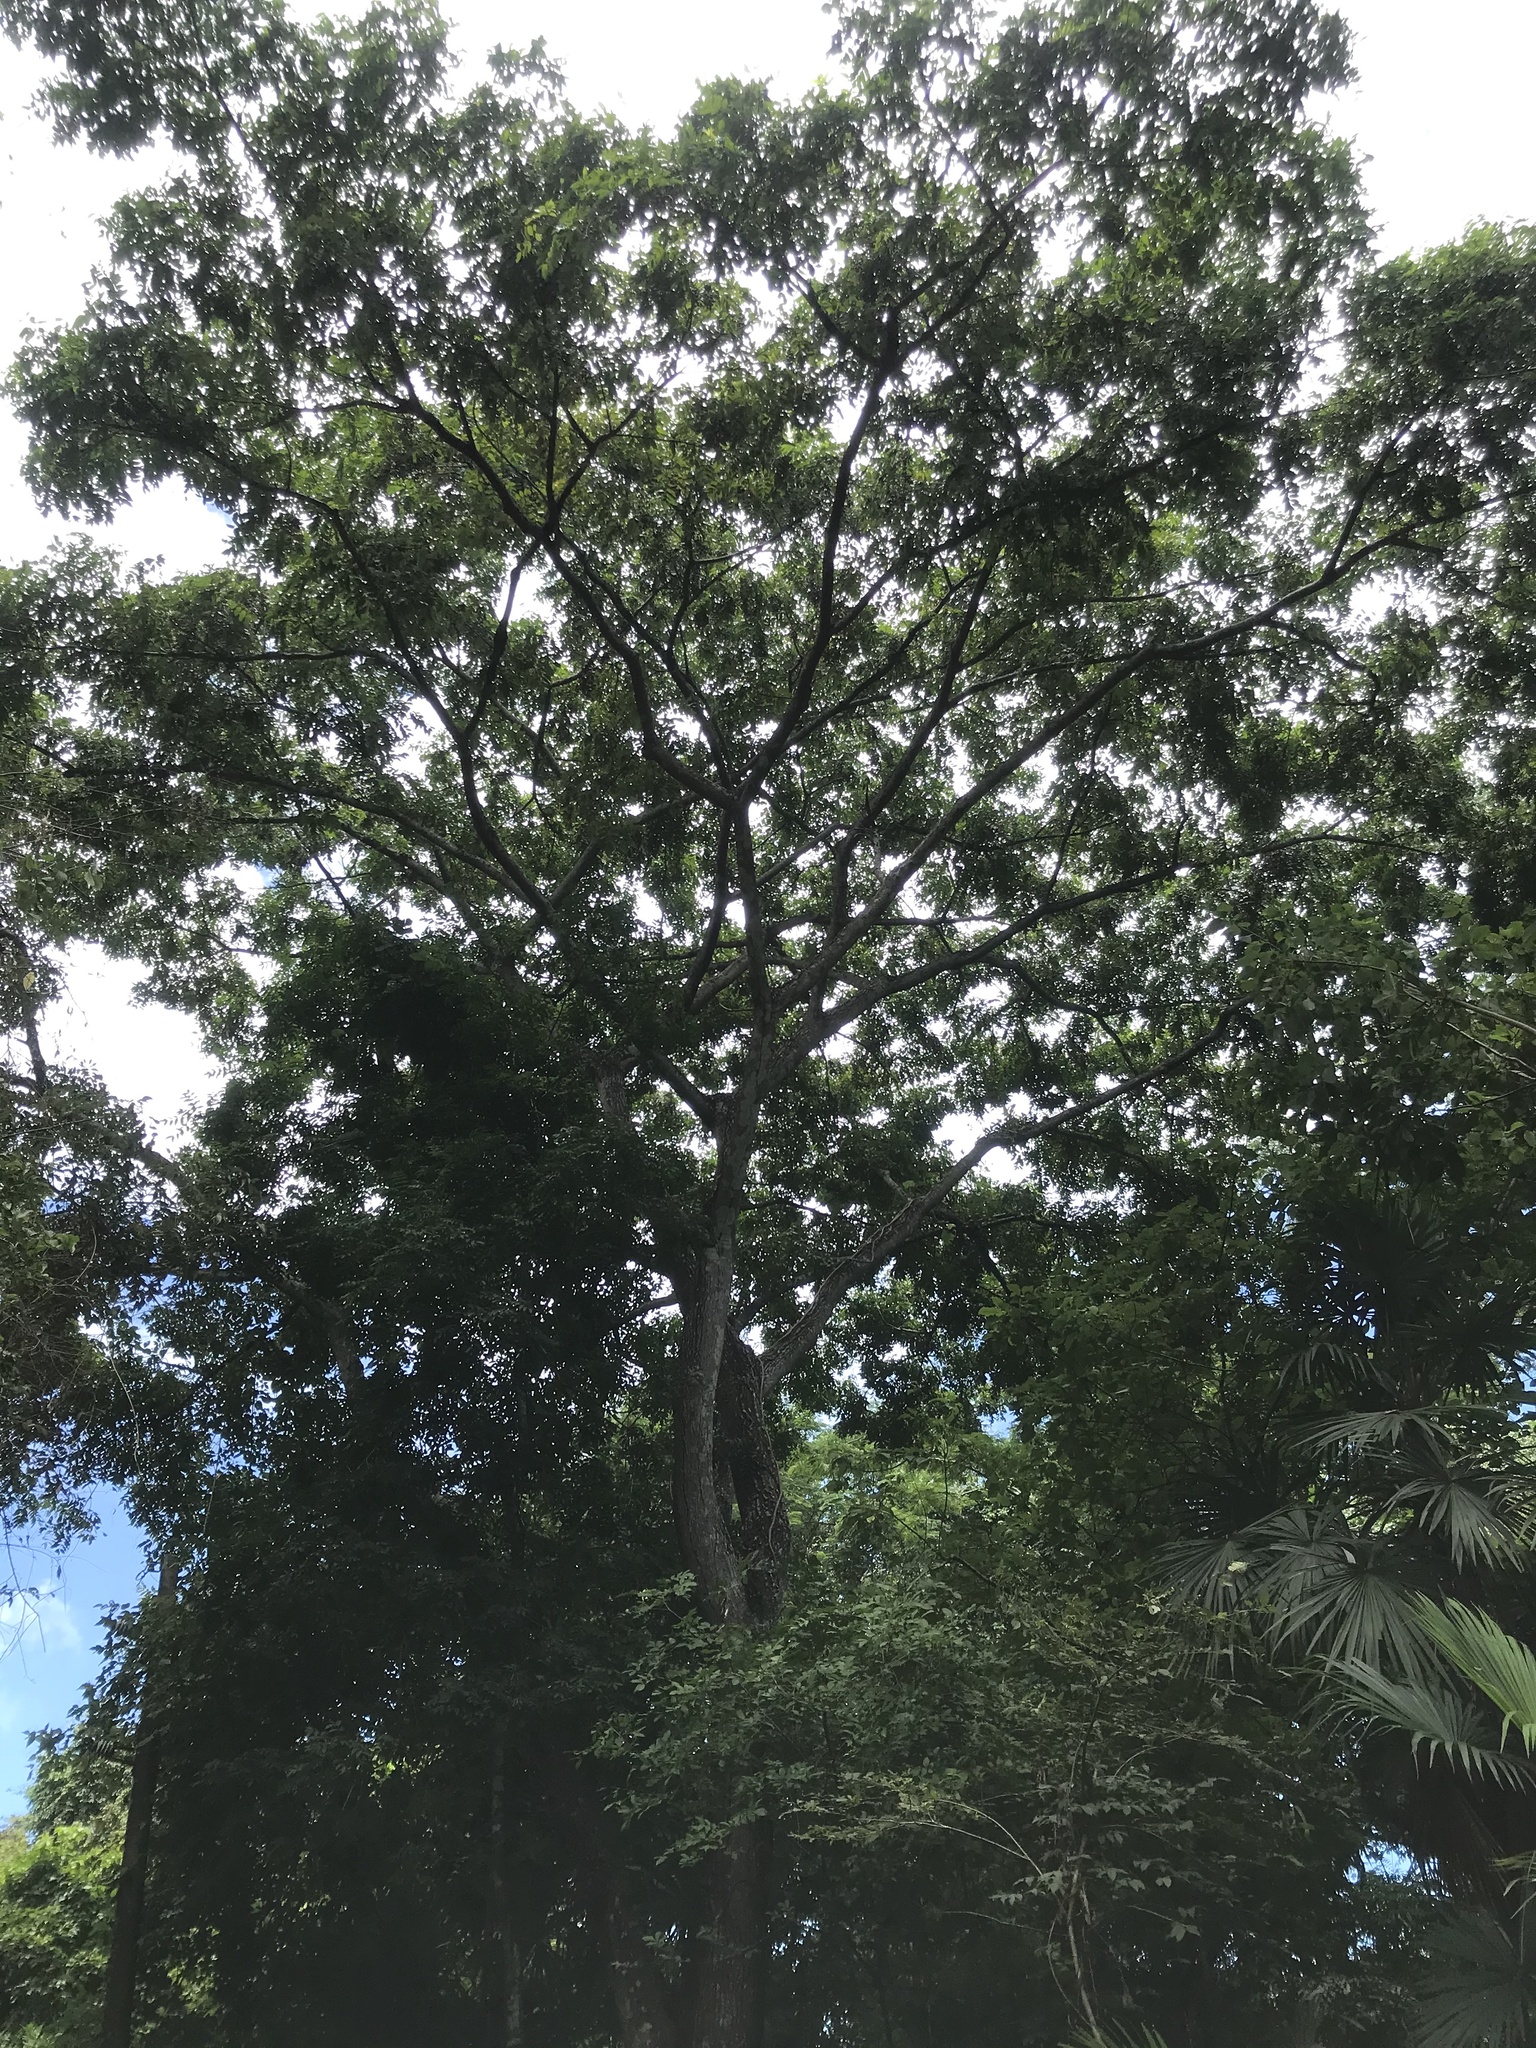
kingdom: Plantae
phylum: Tracheophyta
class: Magnoliopsida
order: Sapindales
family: Anacardiaceae
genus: Spondias
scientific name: Spondias mombin
